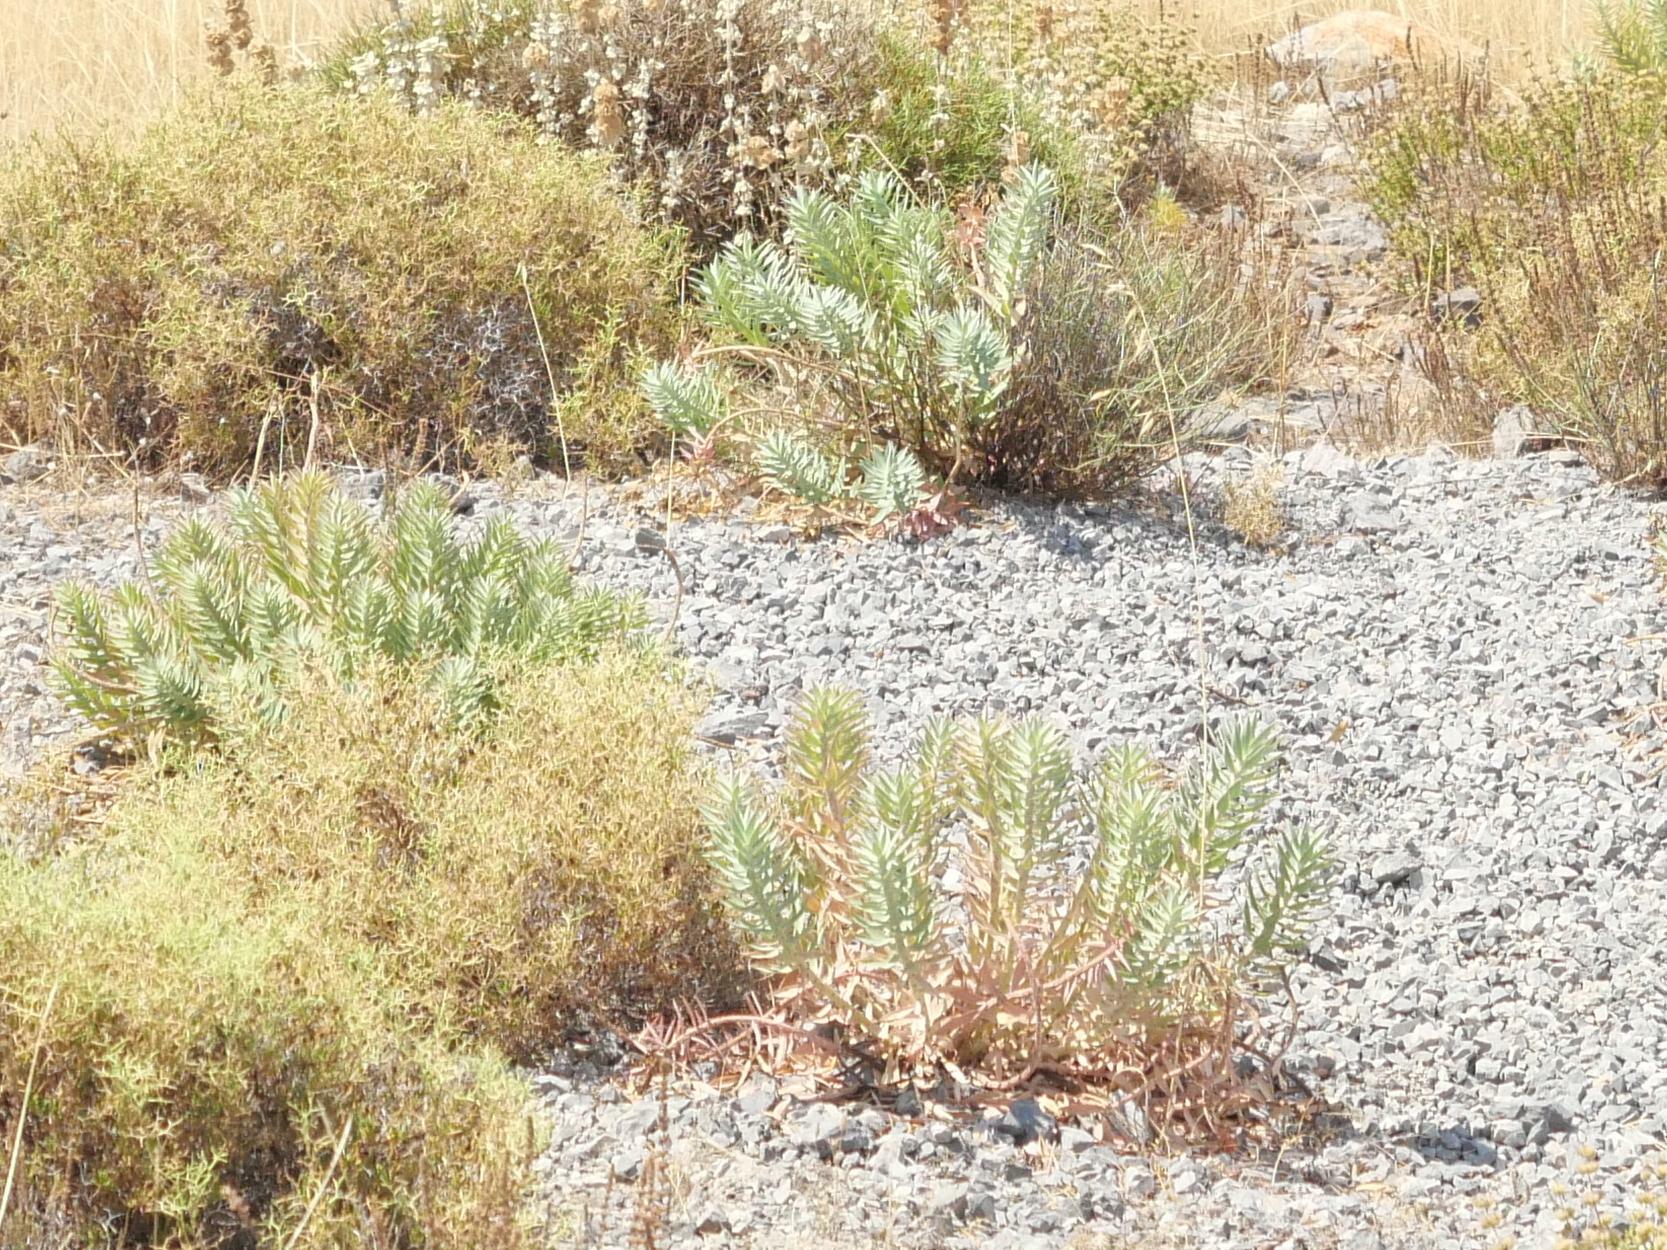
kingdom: Plantae
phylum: Tracheophyta
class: Magnoliopsida
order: Malpighiales
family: Euphorbiaceae
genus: Euphorbia
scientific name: Euphorbia rigida
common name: Upright myrtle spurge
